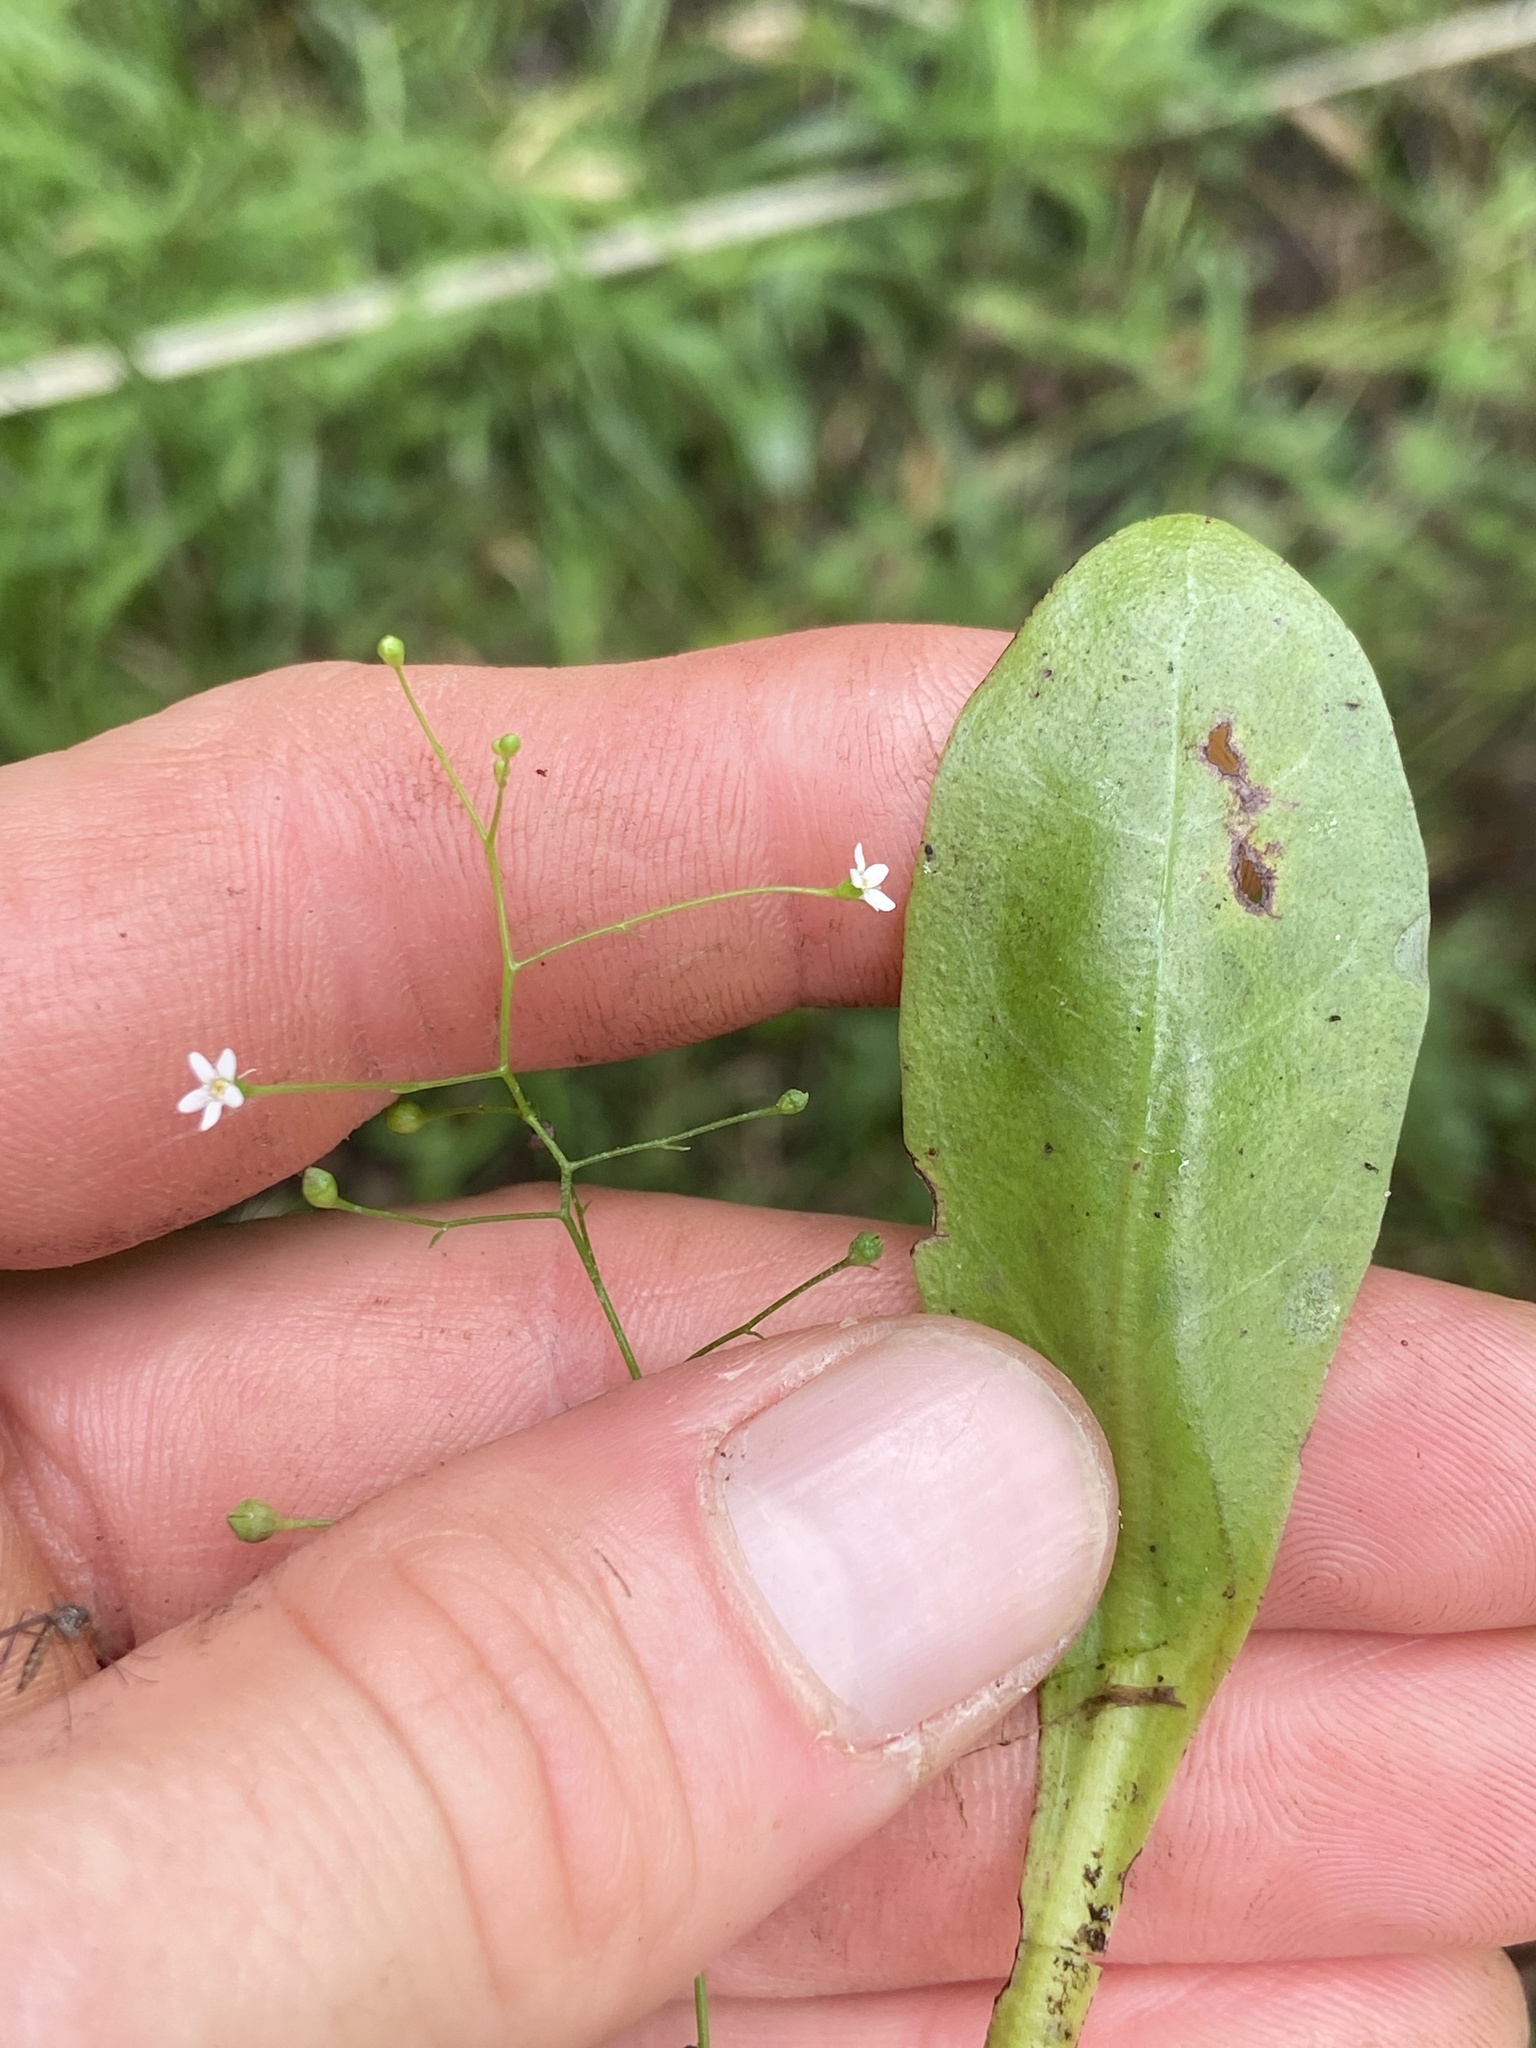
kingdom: Plantae
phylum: Tracheophyta
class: Magnoliopsida
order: Ericales
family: Primulaceae
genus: Samolus
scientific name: Samolus parviflorus
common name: False water pimpernel
